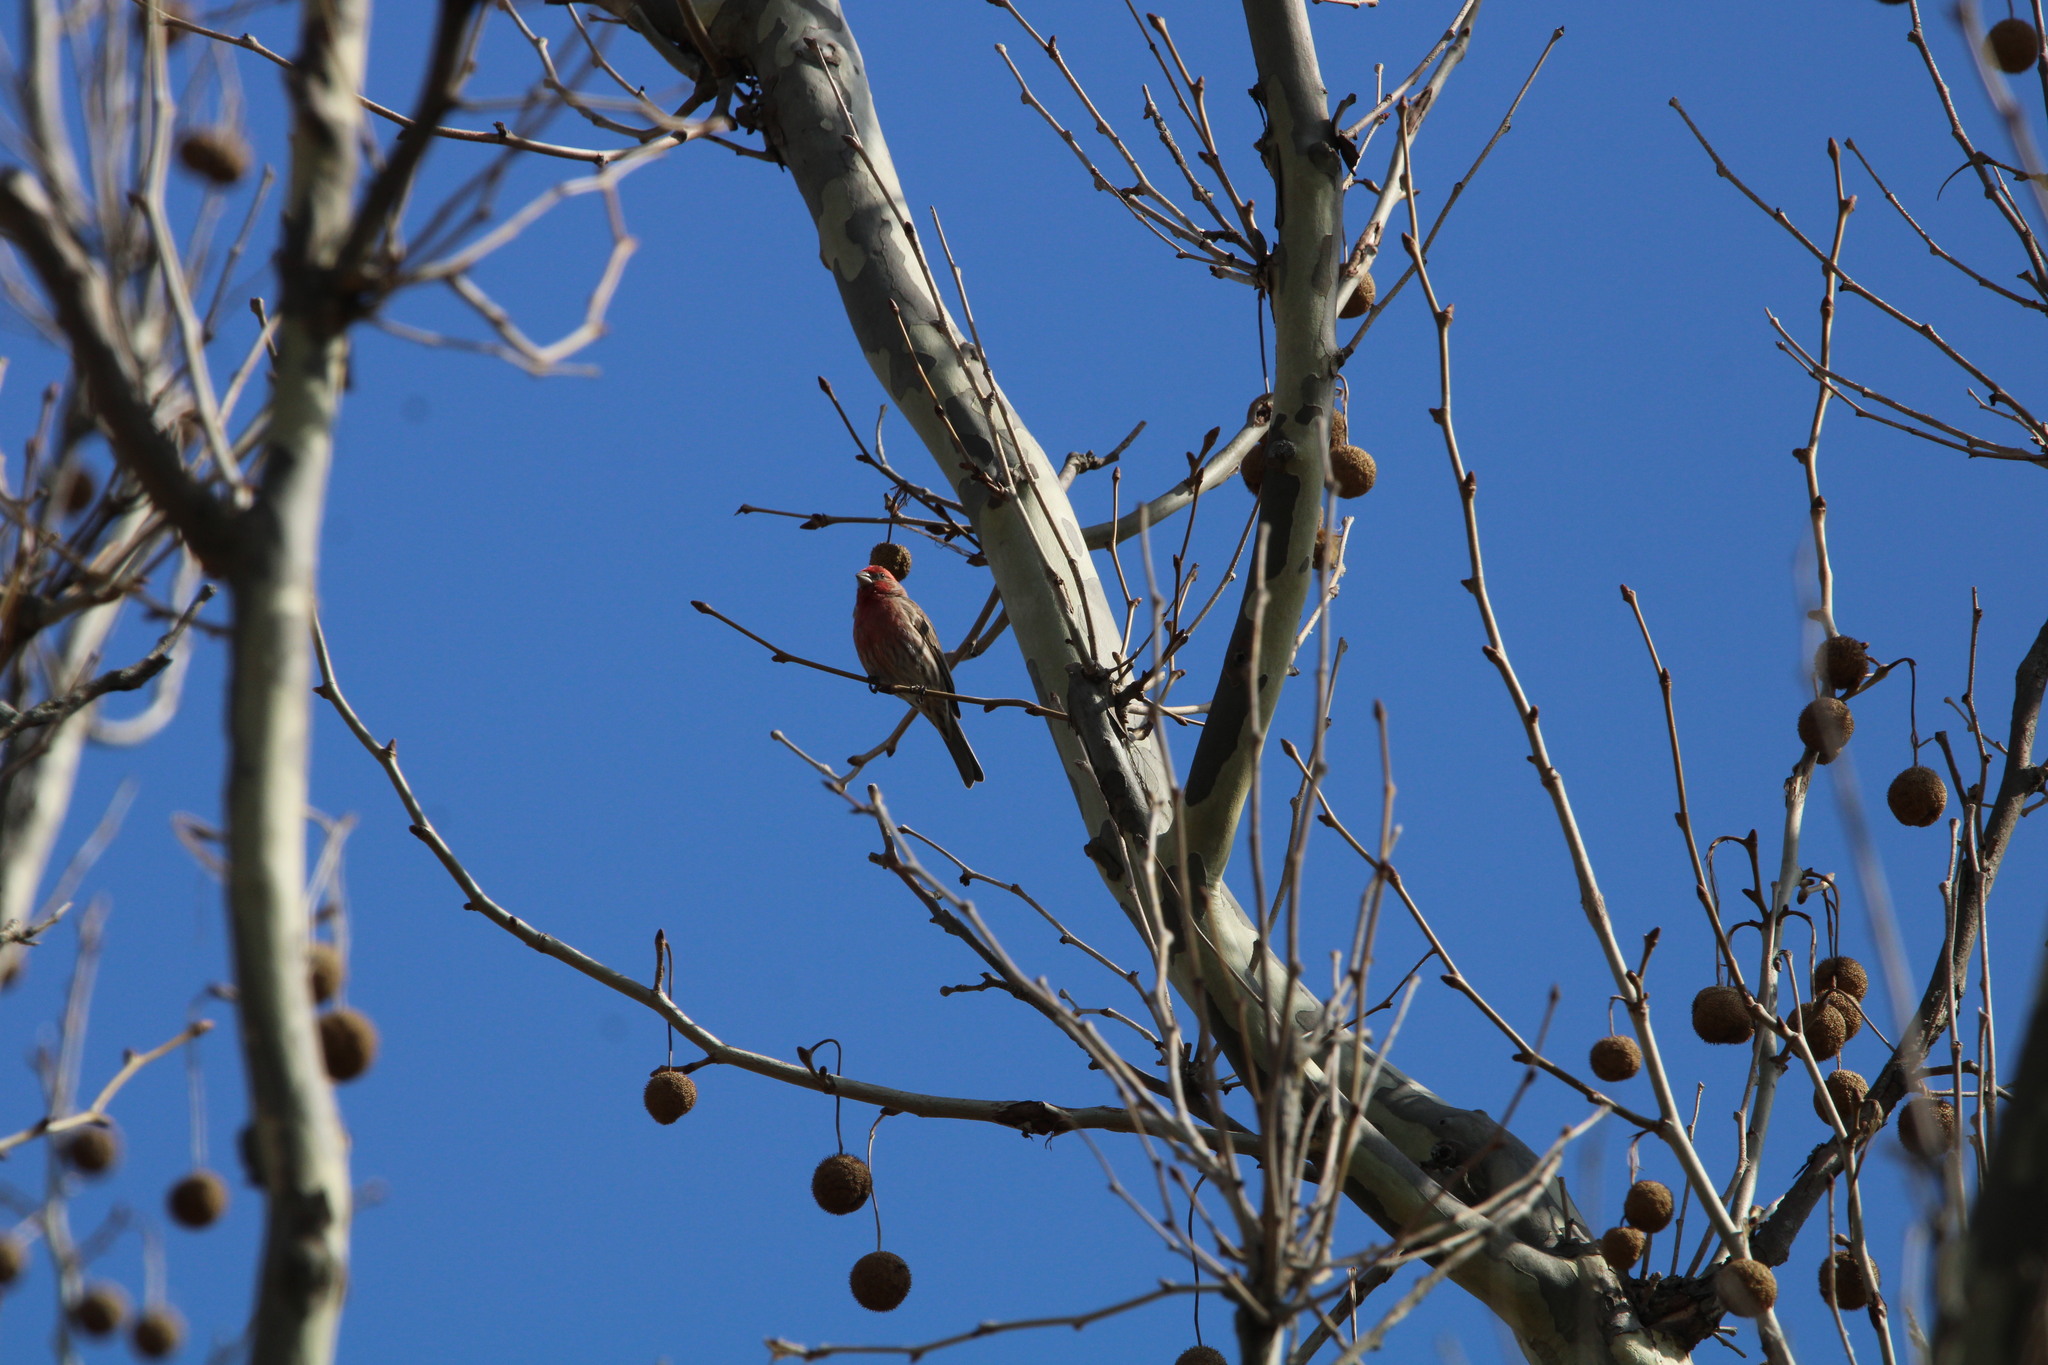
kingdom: Animalia
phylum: Chordata
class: Aves
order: Passeriformes
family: Fringillidae
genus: Haemorhous
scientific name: Haemorhous mexicanus
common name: House finch
